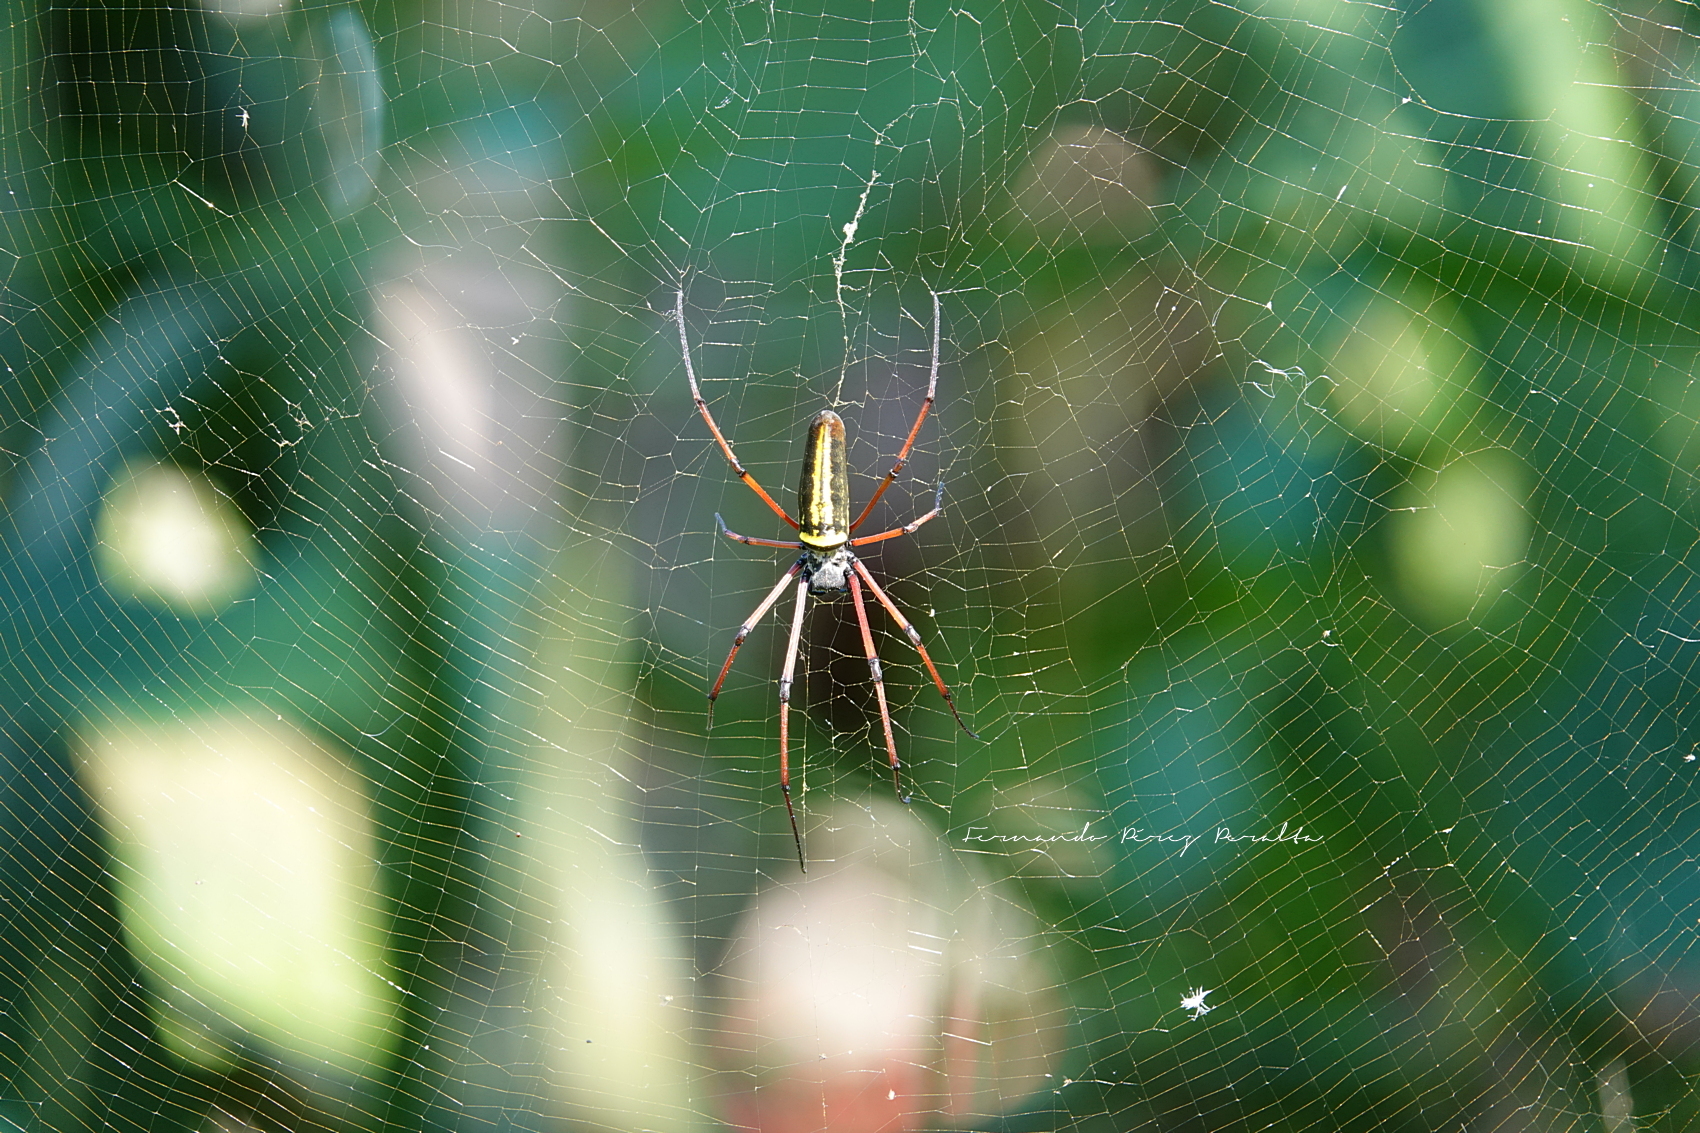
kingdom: Animalia
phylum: Arthropoda
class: Arachnida
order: Araneae
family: Araneidae
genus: Nephila
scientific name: Nephila pilipes
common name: Giant golden orb weaver
